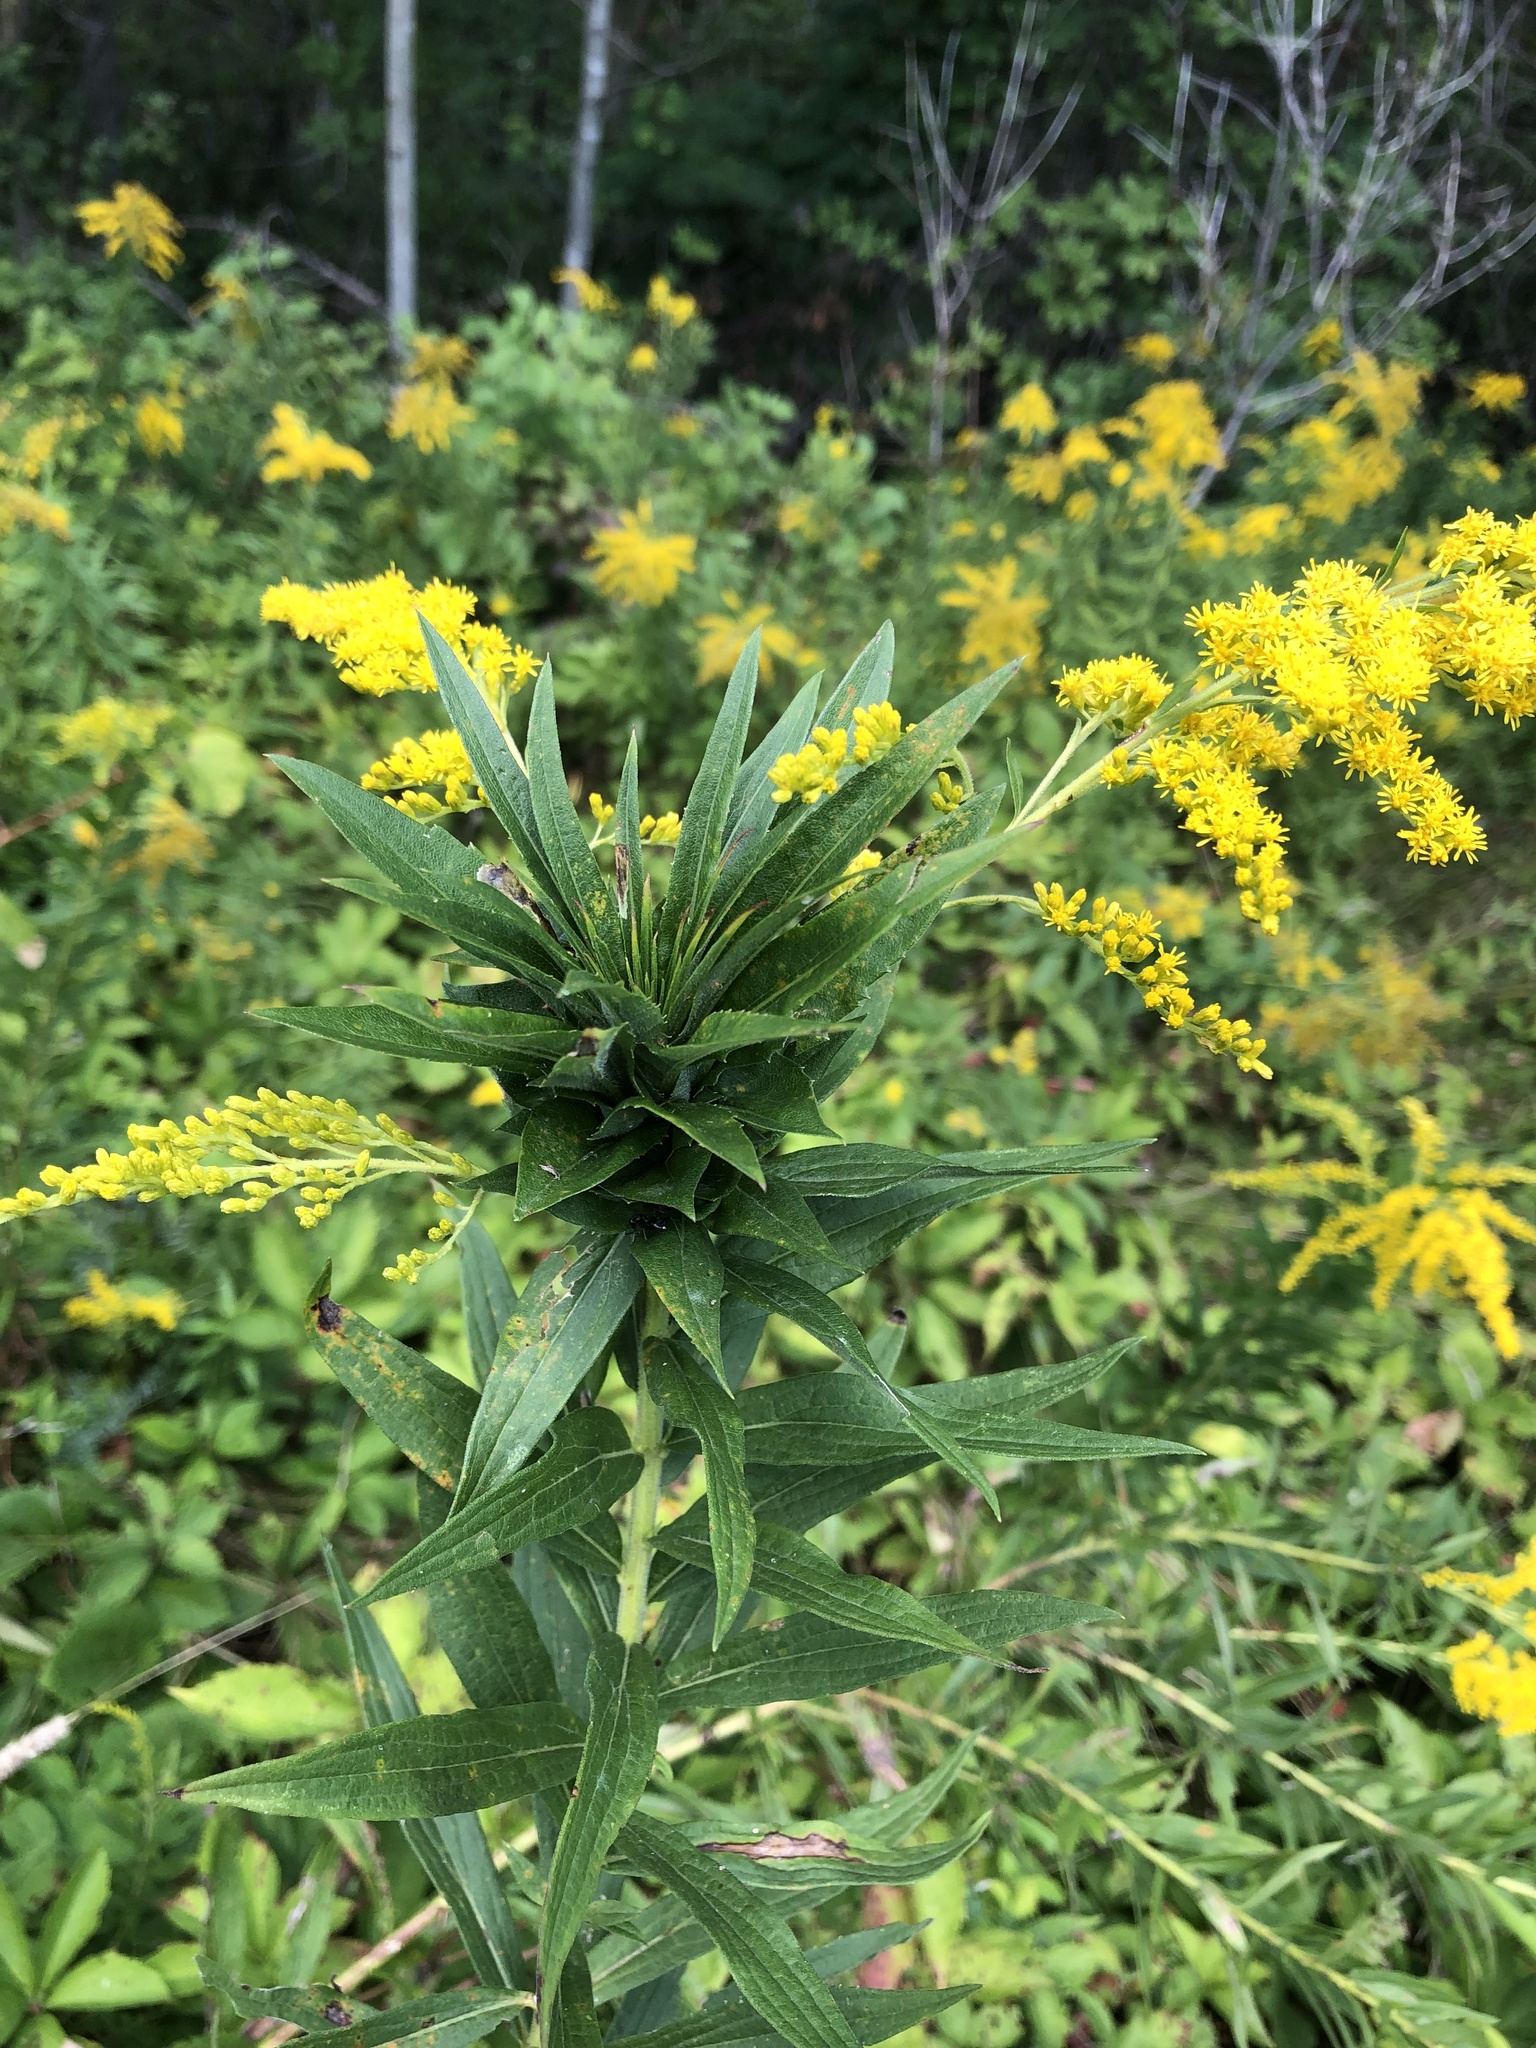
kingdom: Animalia
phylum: Arthropoda
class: Insecta
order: Diptera
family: Cecidomyiidae
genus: Rhopalomyia
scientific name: Rhopalomyia solidaginis
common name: Goldenrod bunch gall midge
